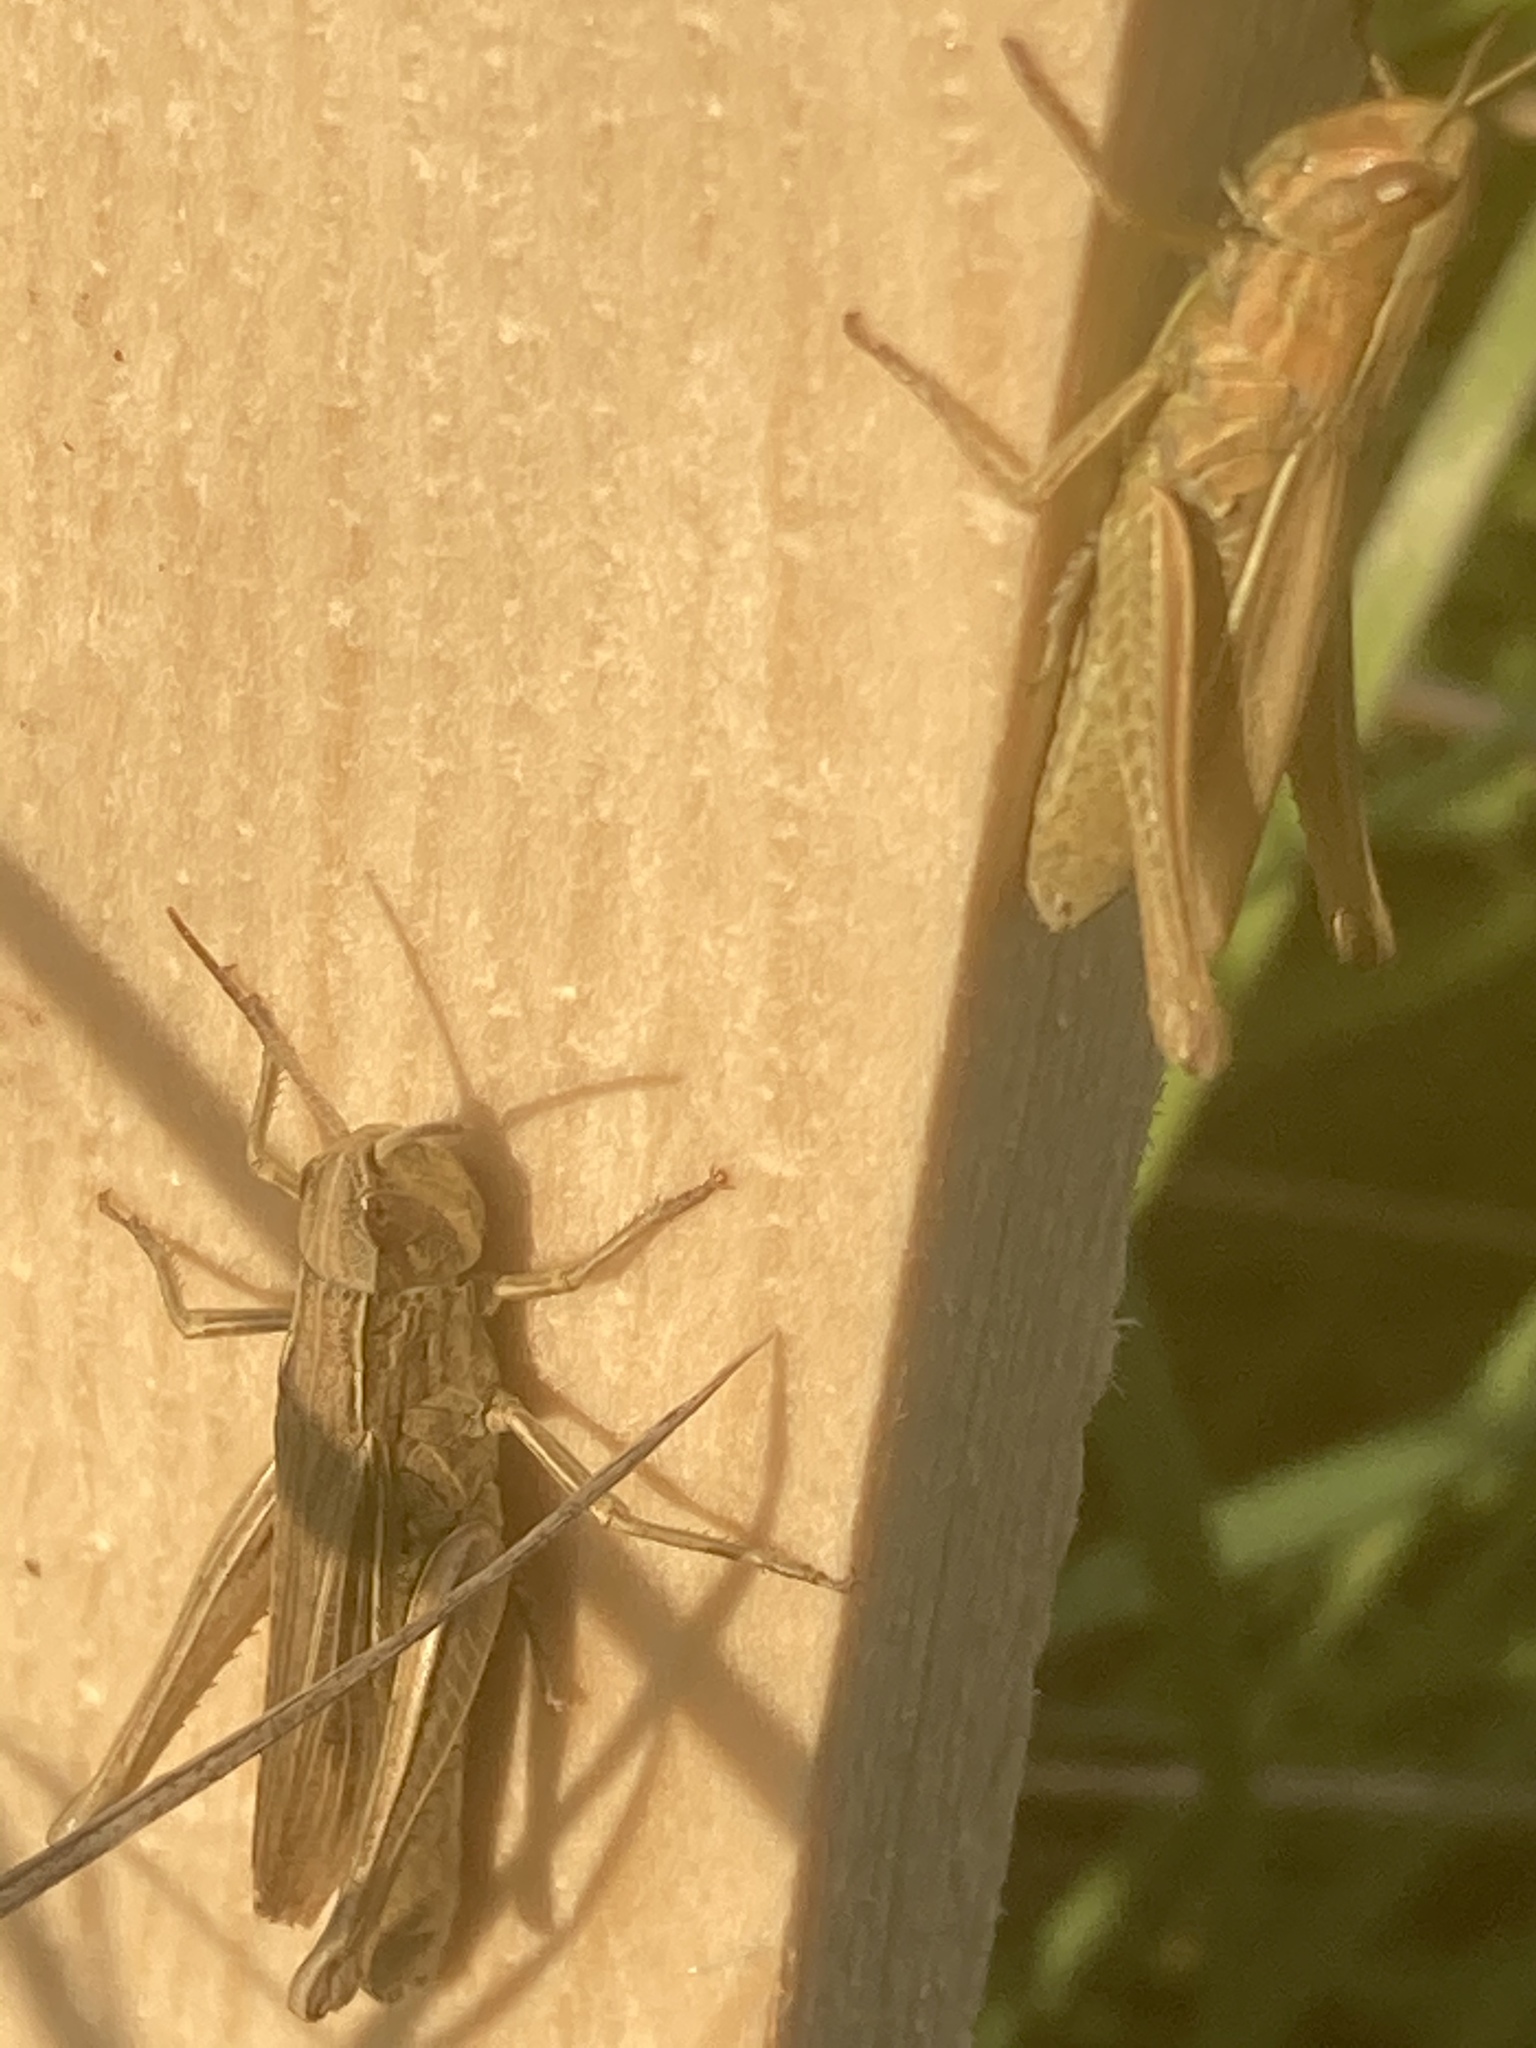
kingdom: Animalia
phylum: Arthropoda
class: Insecta
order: Orthoptera
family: Acrididae
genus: Chorthippus
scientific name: Chorthippus albomarginatus
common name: Lesser marsh grasshopper
